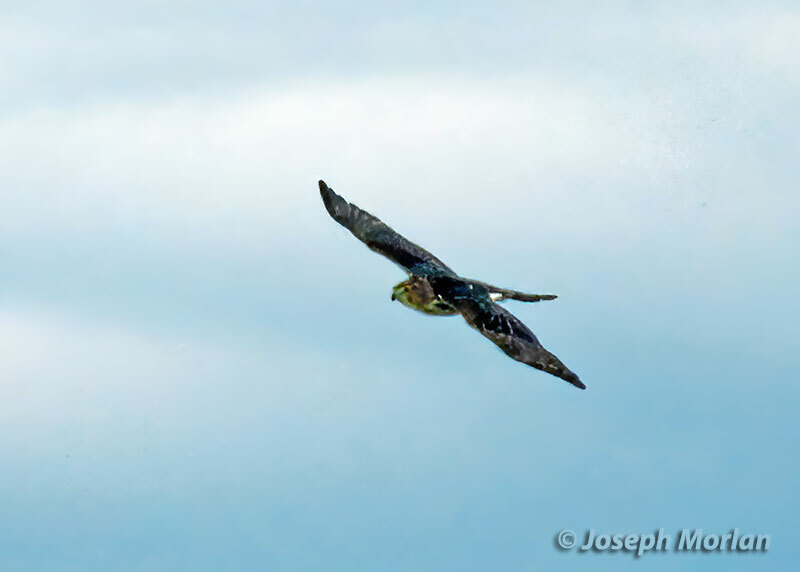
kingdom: Animalia
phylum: Chordata
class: Aves
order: Accipitriformes
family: Accipitridae
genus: Circus
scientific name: Circus cyaneus
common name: Hen harrier
